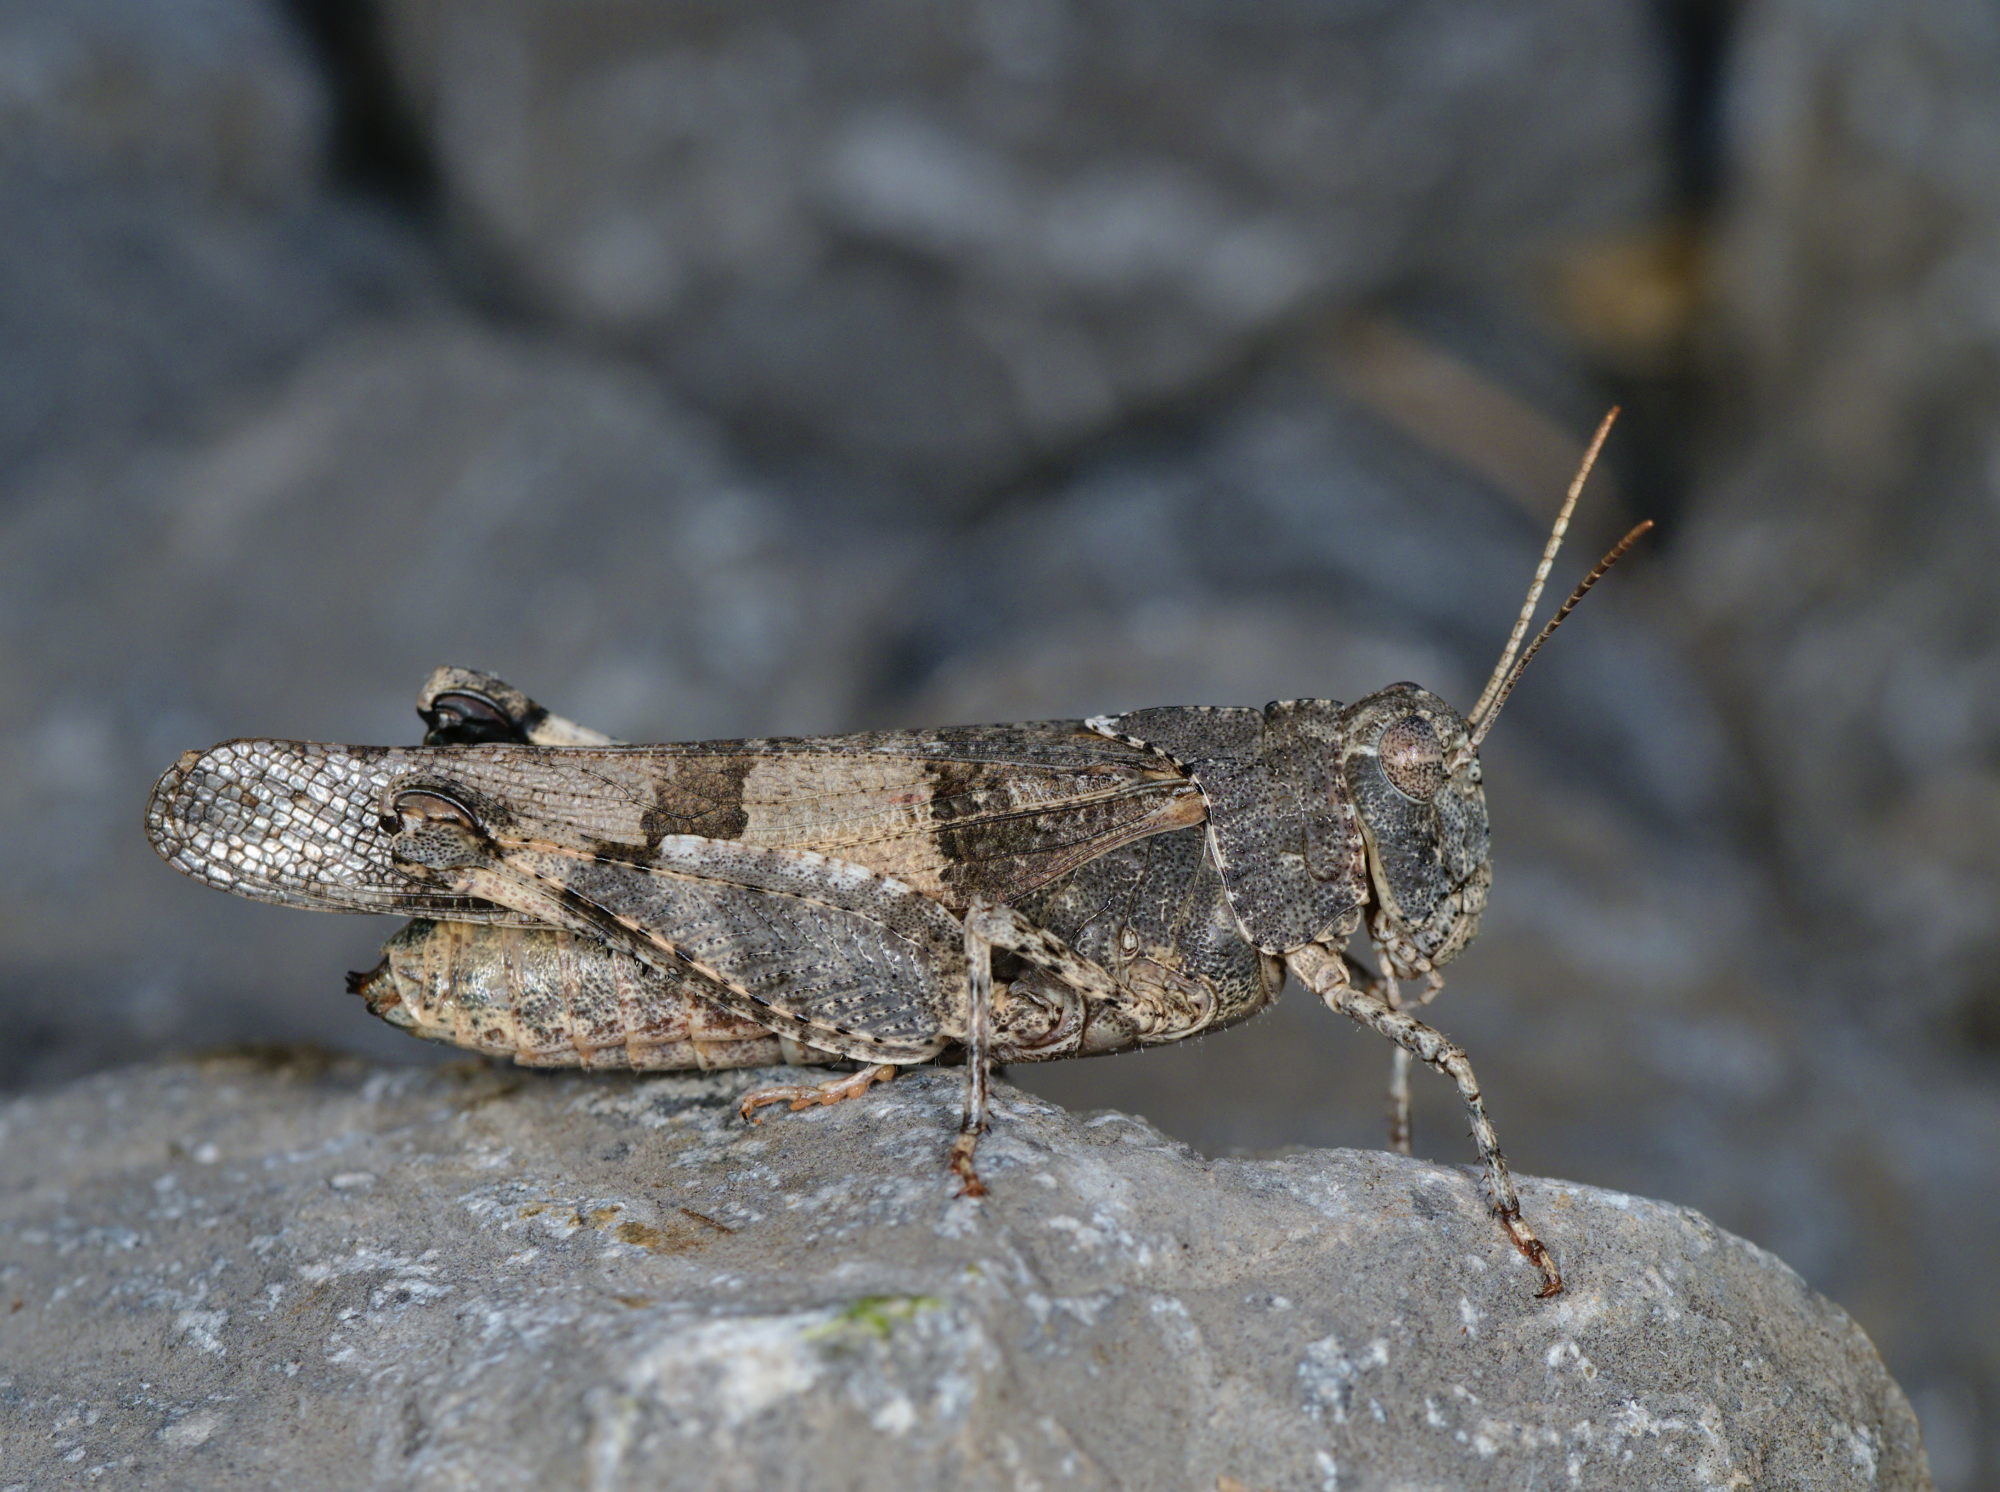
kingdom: Animalia
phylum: Arthropoda
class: Insecta
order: Orthoptera
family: Acrididae
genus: Oedipoda
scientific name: Oedipoda caerulescens
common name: Blue-winged grasshopper
